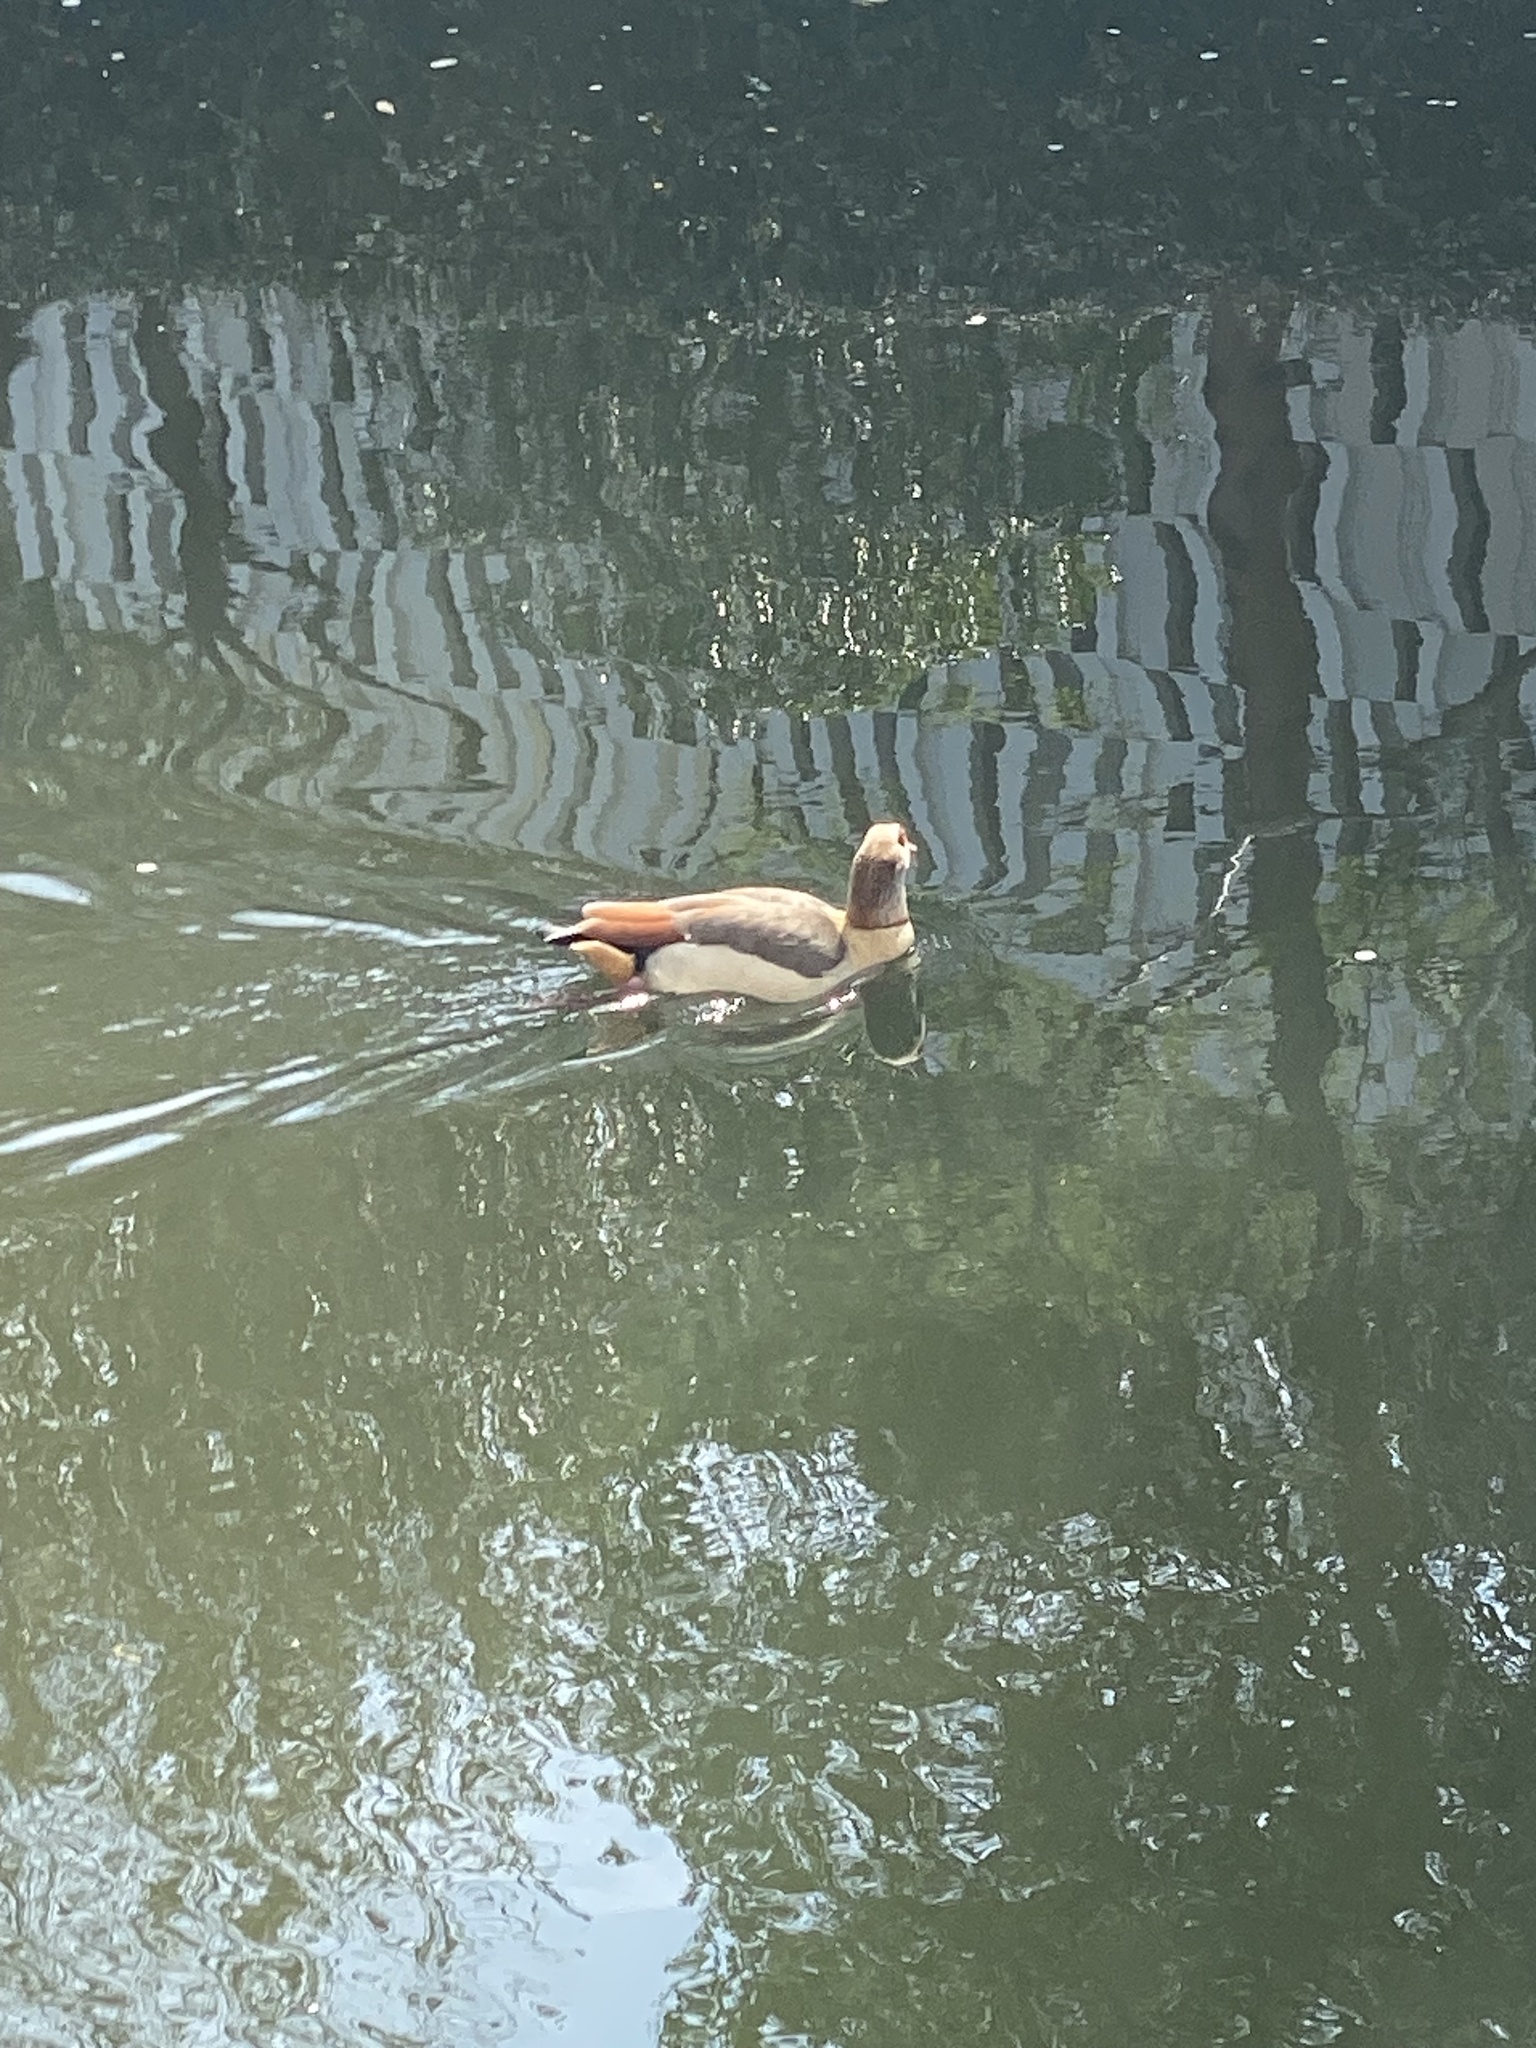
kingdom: Animalia
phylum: Chordata
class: Aves
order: Anseriformes
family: Anatidae
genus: Alopochen
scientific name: Alopochen aegyptiaca
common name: Egyptian goose
